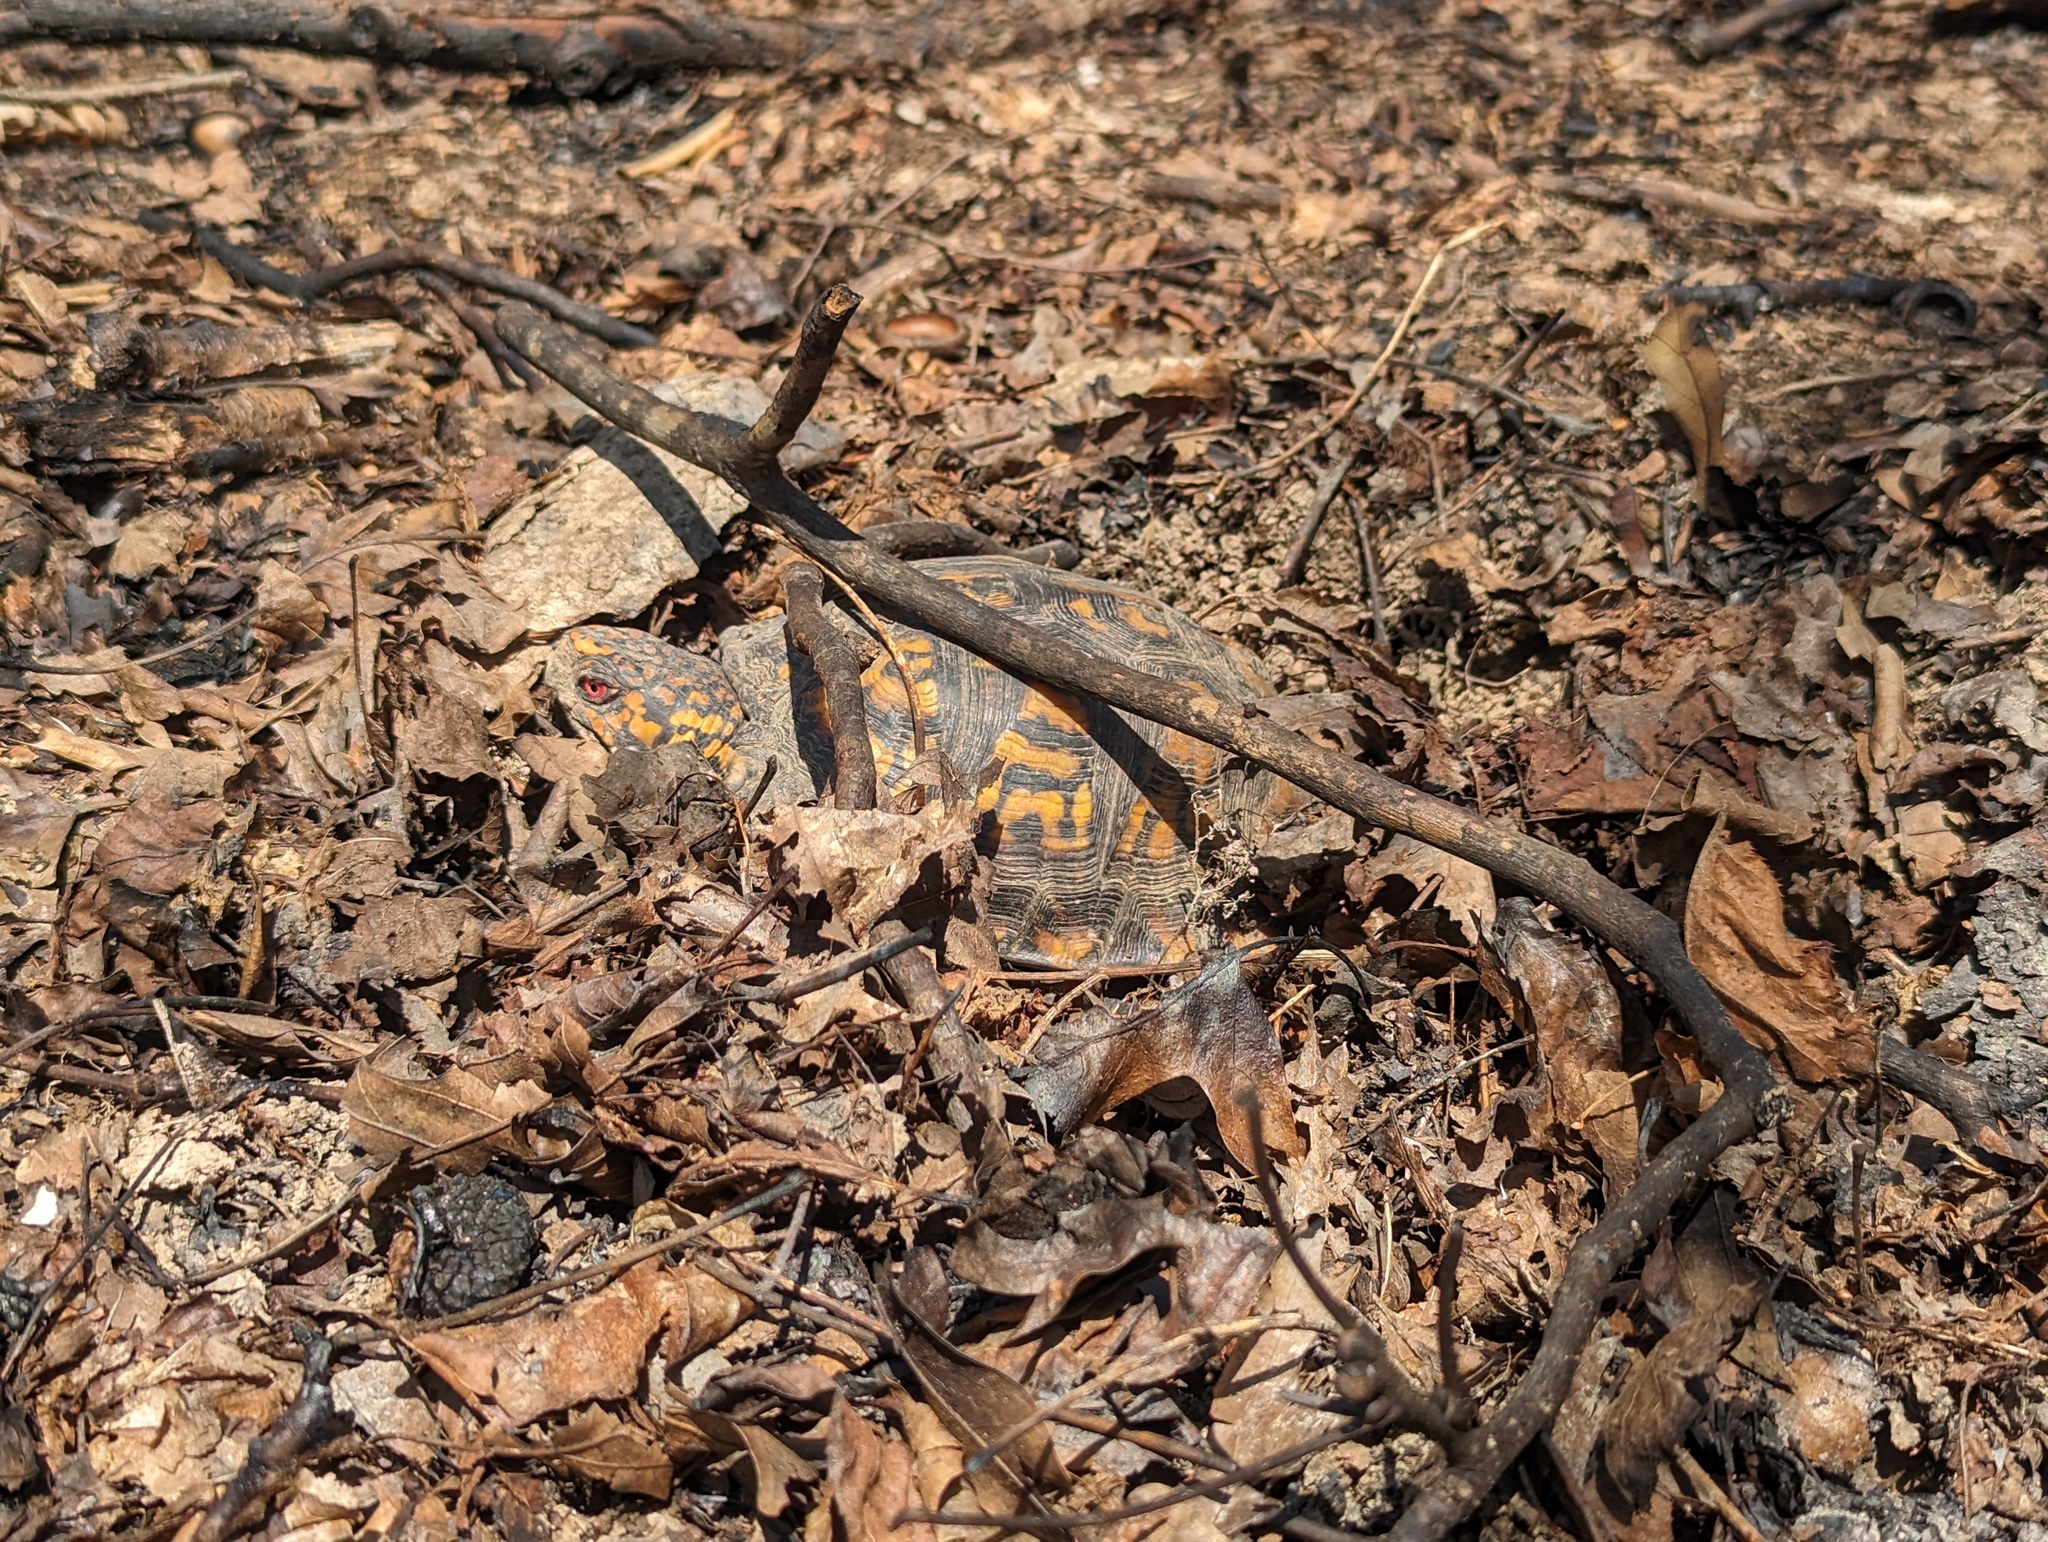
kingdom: Animalia
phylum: Chordata
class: Testudines
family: Emydidae
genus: Terrapene
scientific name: Terrapene carolina
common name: Common box turtle
